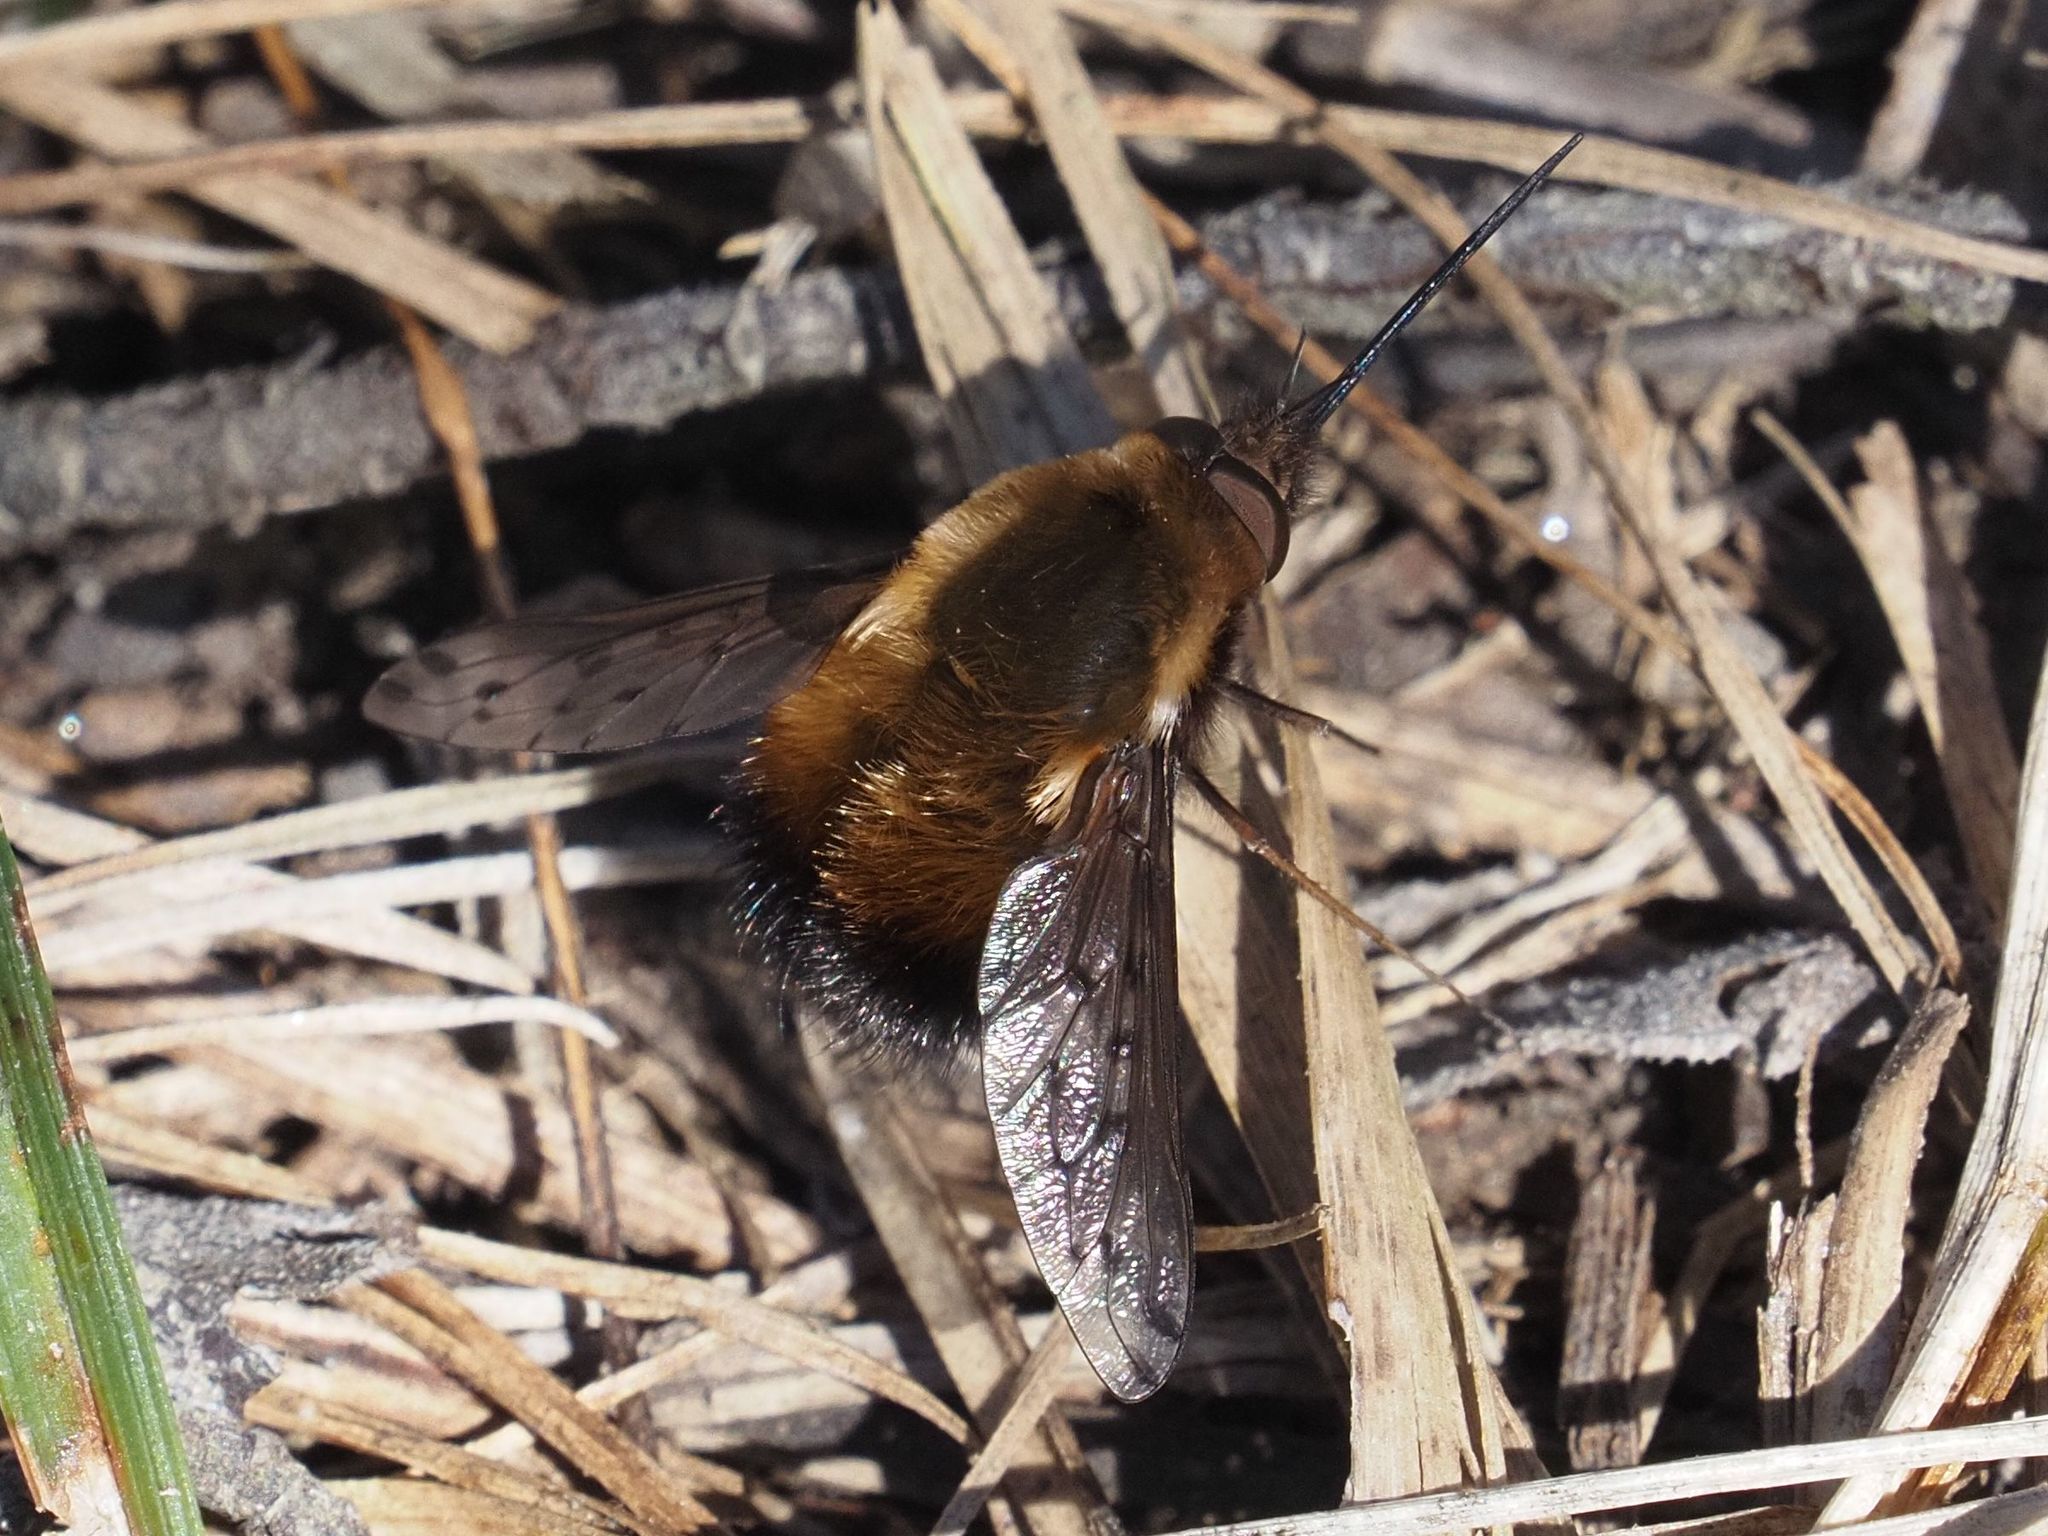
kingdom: Animalia
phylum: Arthropoda
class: Insecta
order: Diptera
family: Bombyliidae
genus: Bombylius
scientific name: Bombylius discolor
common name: Dotted bee-fly
